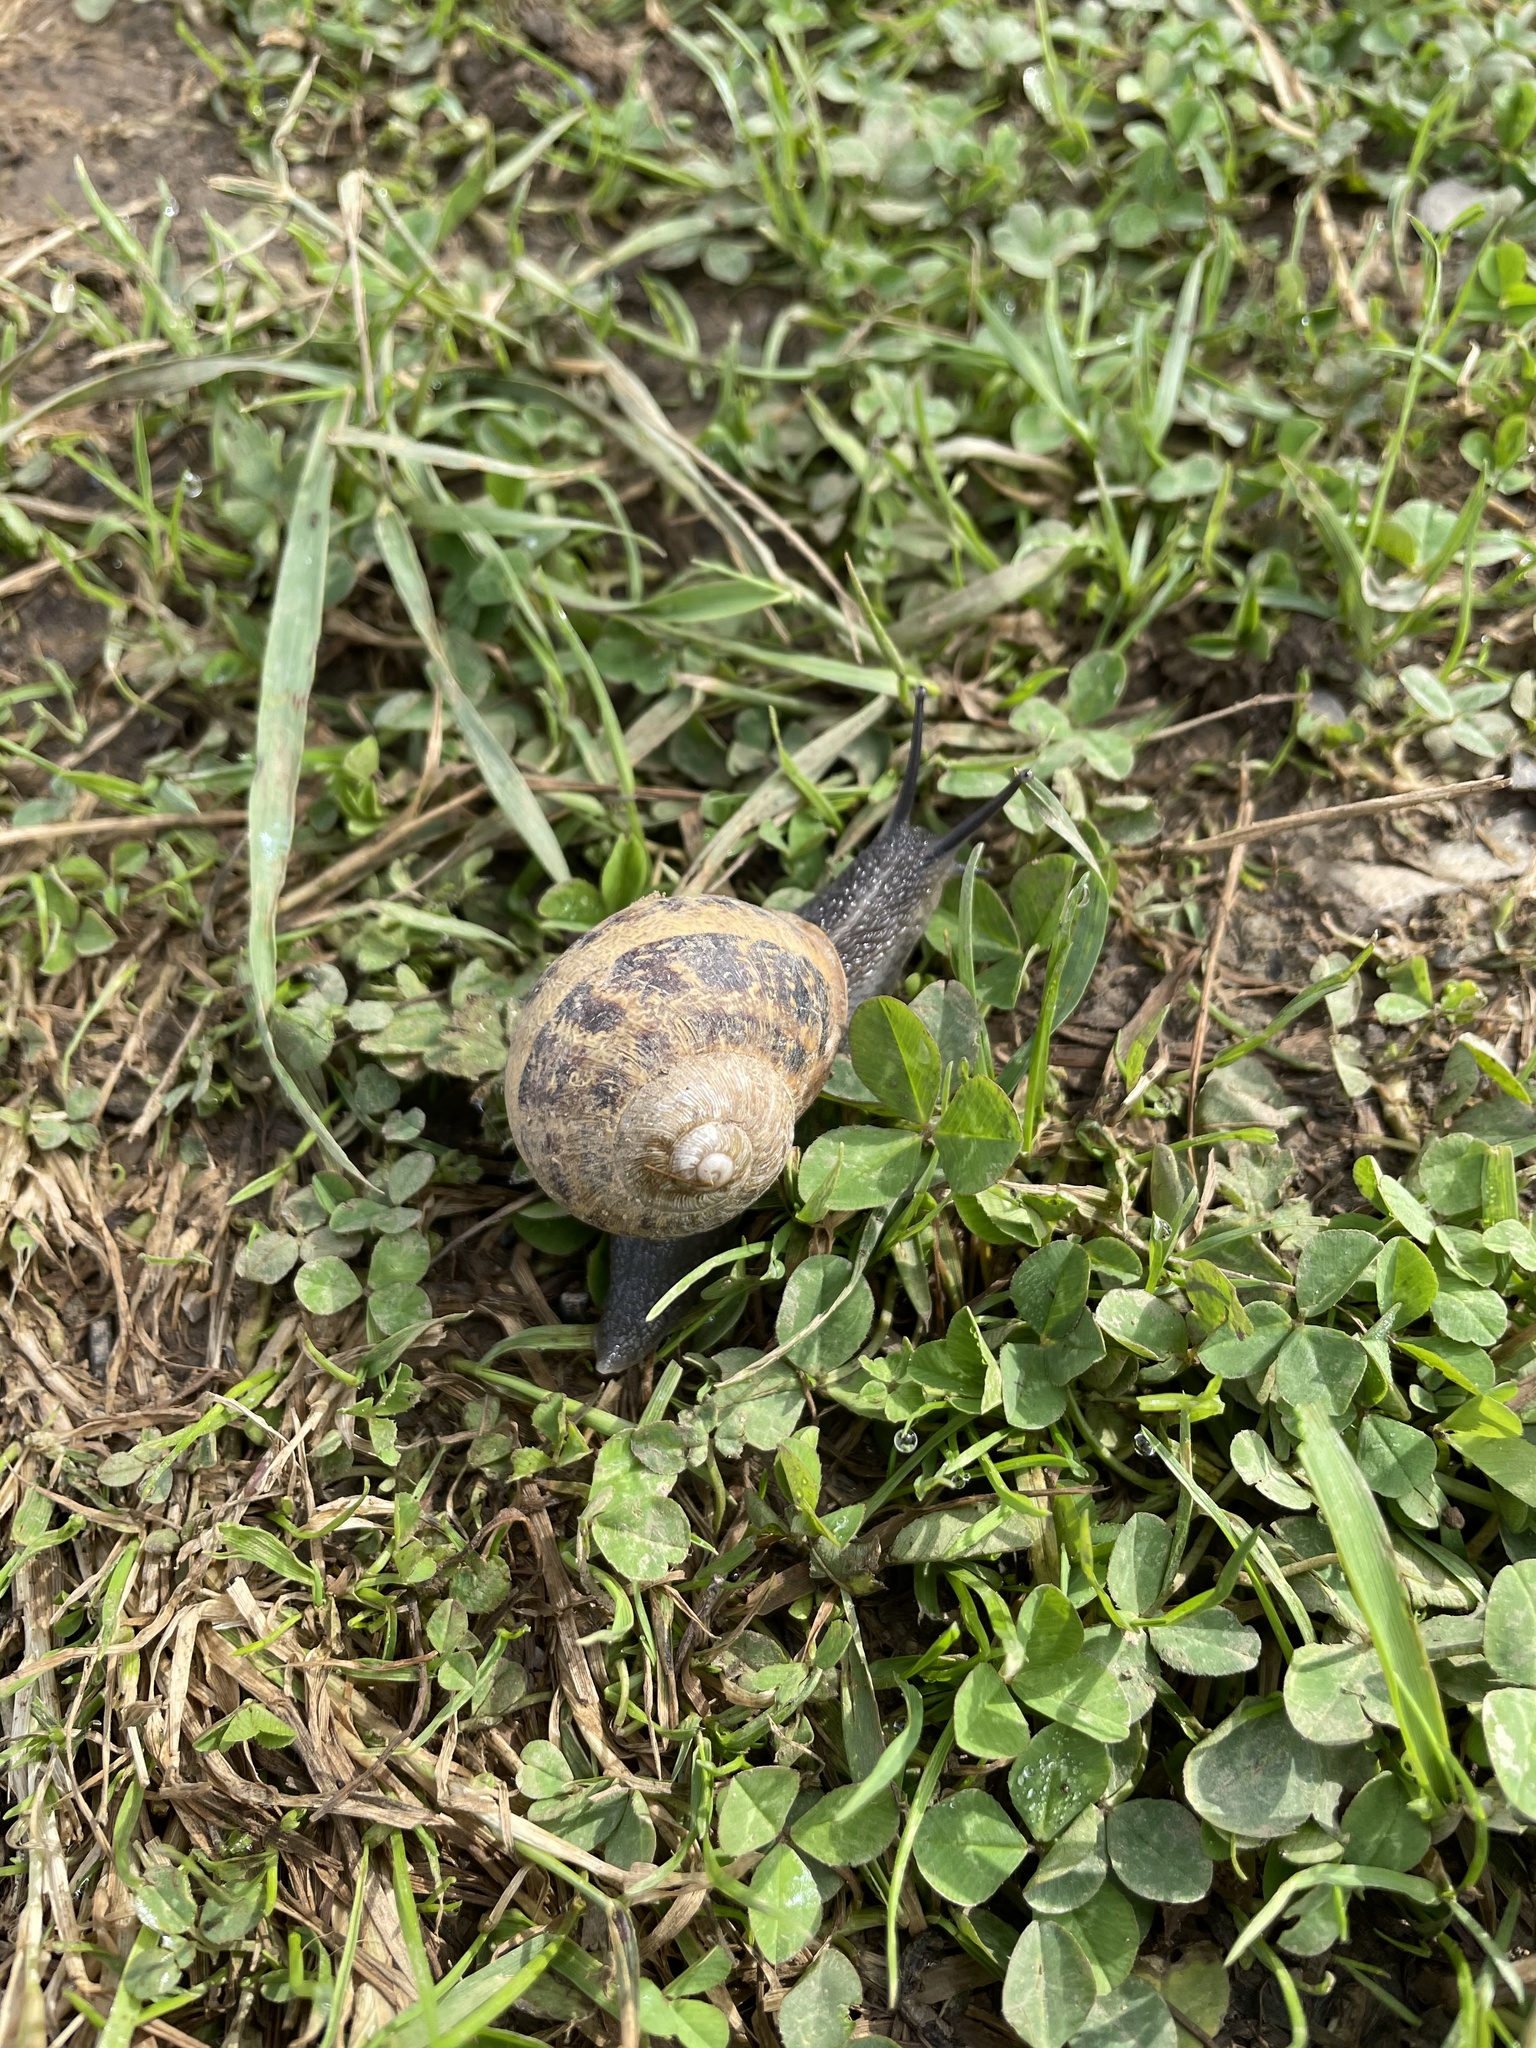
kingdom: Animalia
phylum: Mollusca
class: Gastropoda
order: Stylommatophora
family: Helicidae
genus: Cornu
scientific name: Cornu aspersum
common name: Brown garden snail
